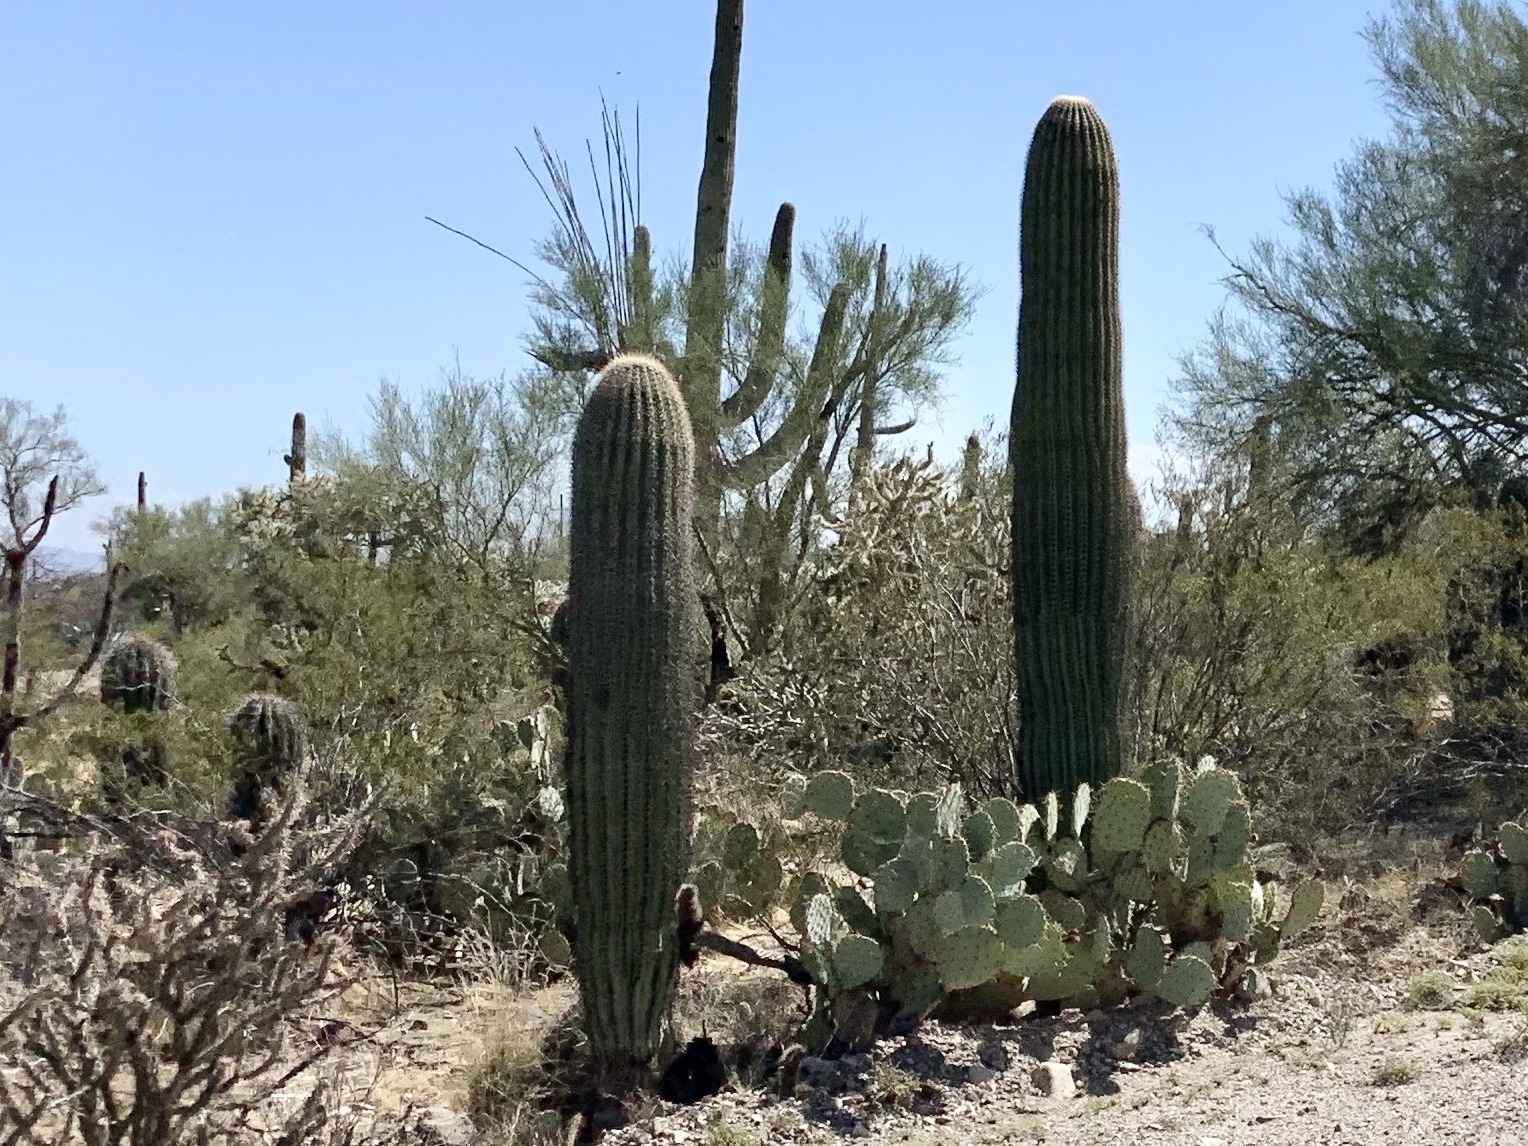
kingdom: Plantae
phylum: Tracheophyta
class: Magnoliopsida
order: Caryophyllales
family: Cactaceae
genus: Carnegiea
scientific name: Carnegiea gigantea
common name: Saguaro
